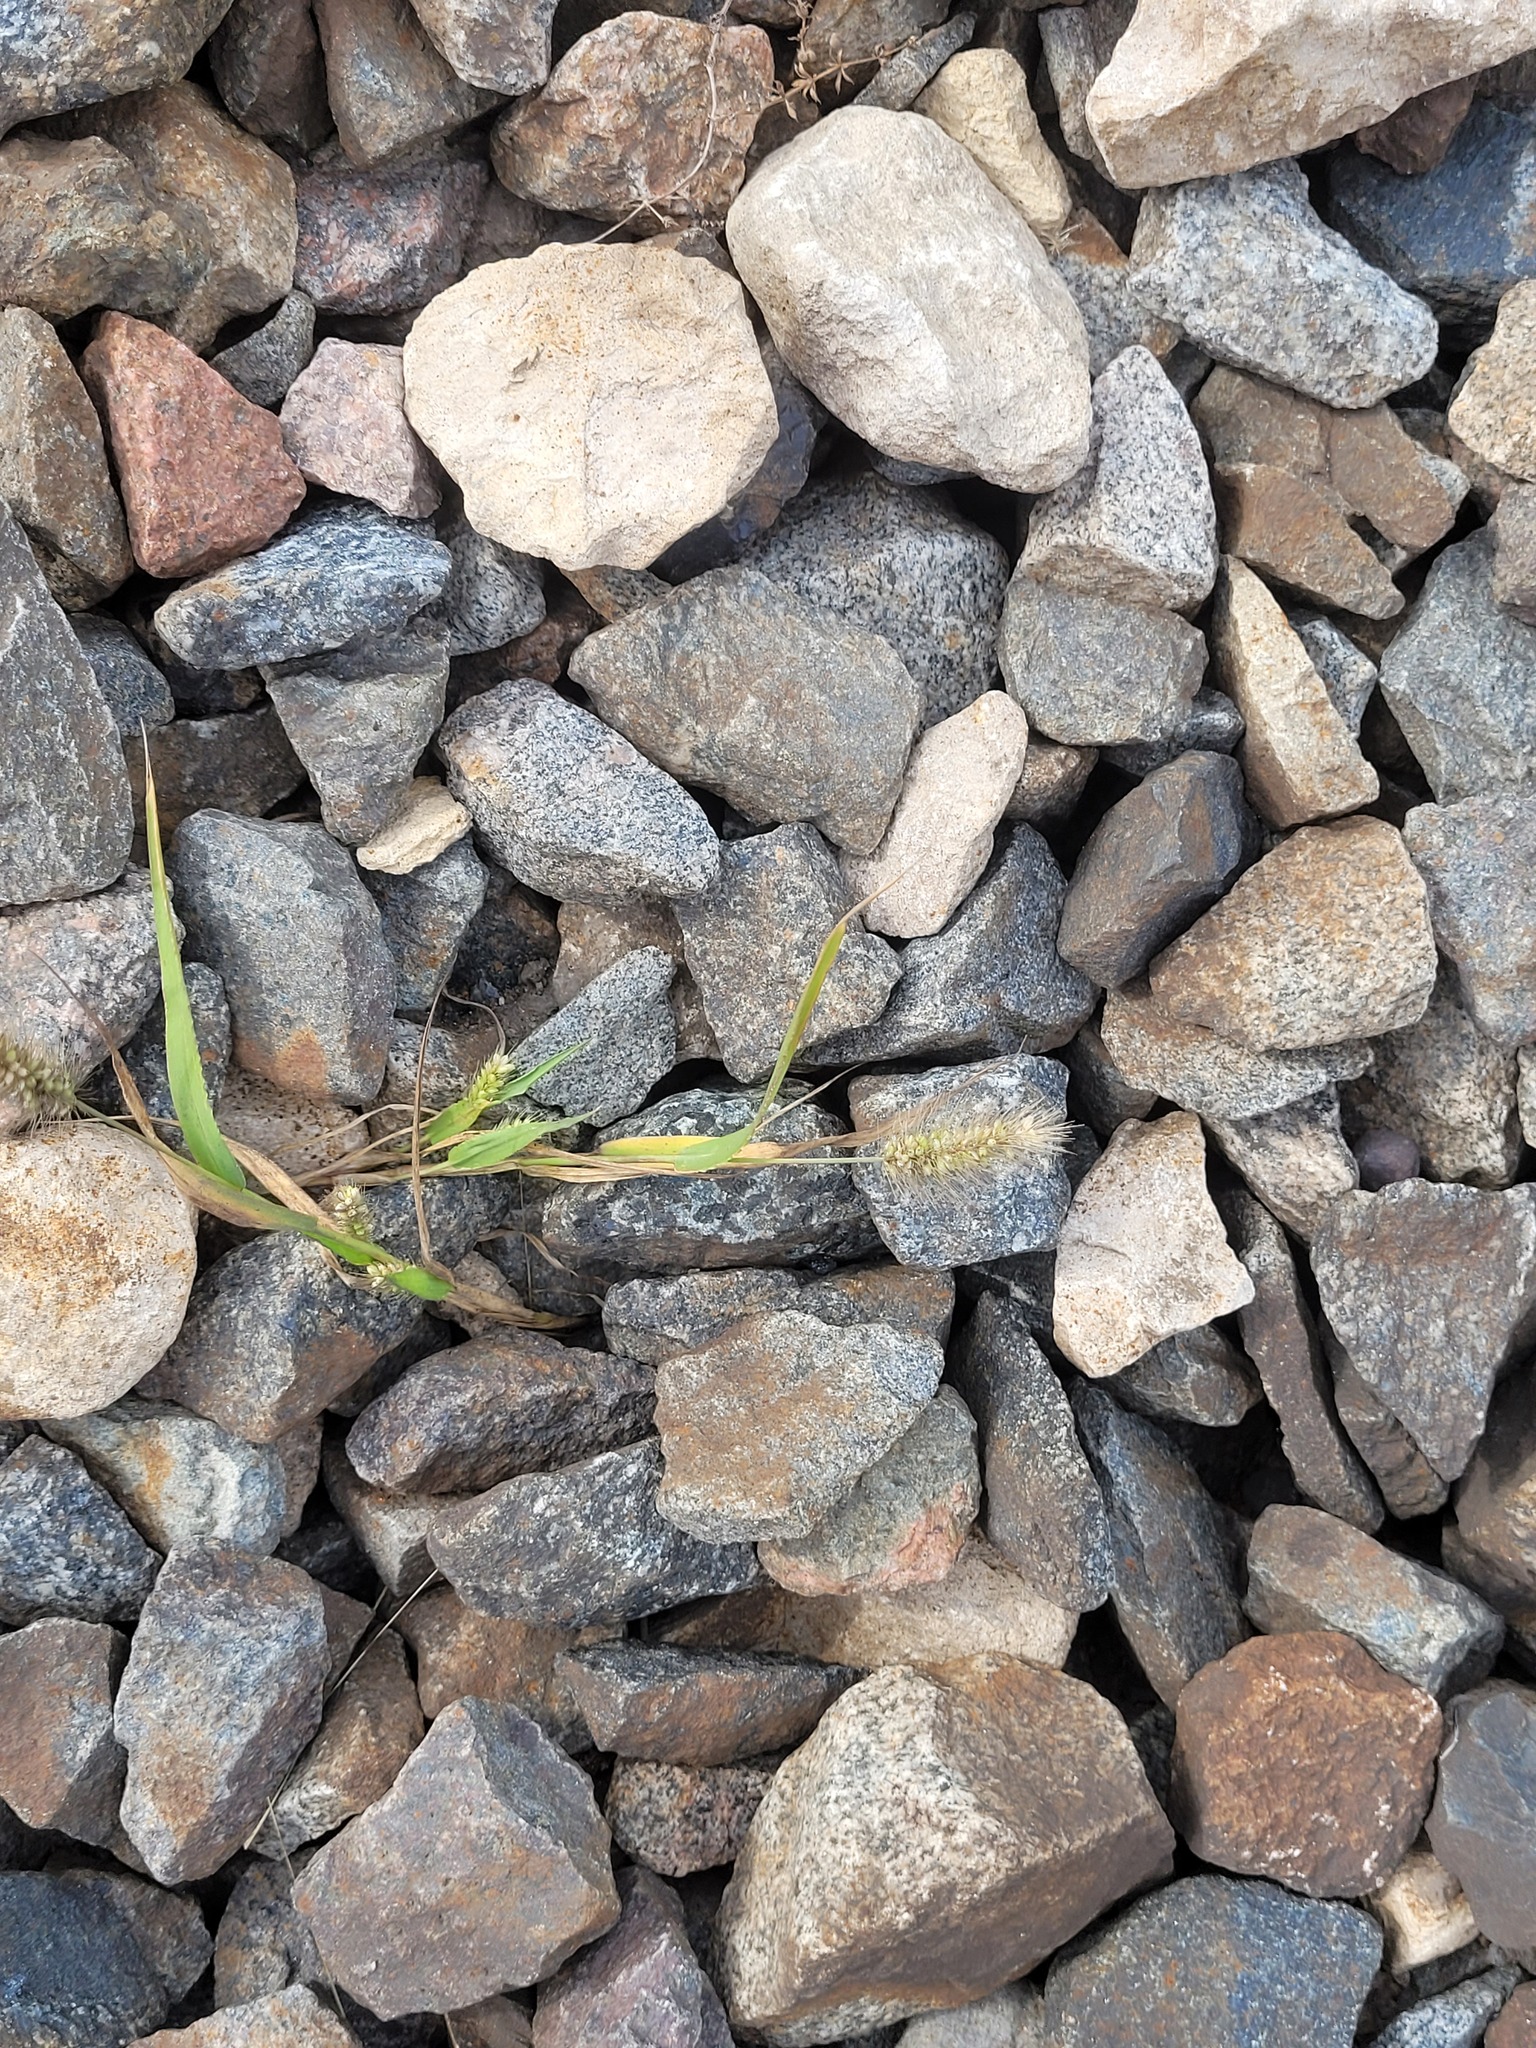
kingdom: Plantae
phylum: Tracheophyta
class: Liliopsida
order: Poales
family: Poaceae
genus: Setaria
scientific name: Setaria viridis
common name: Green bristlegrass
